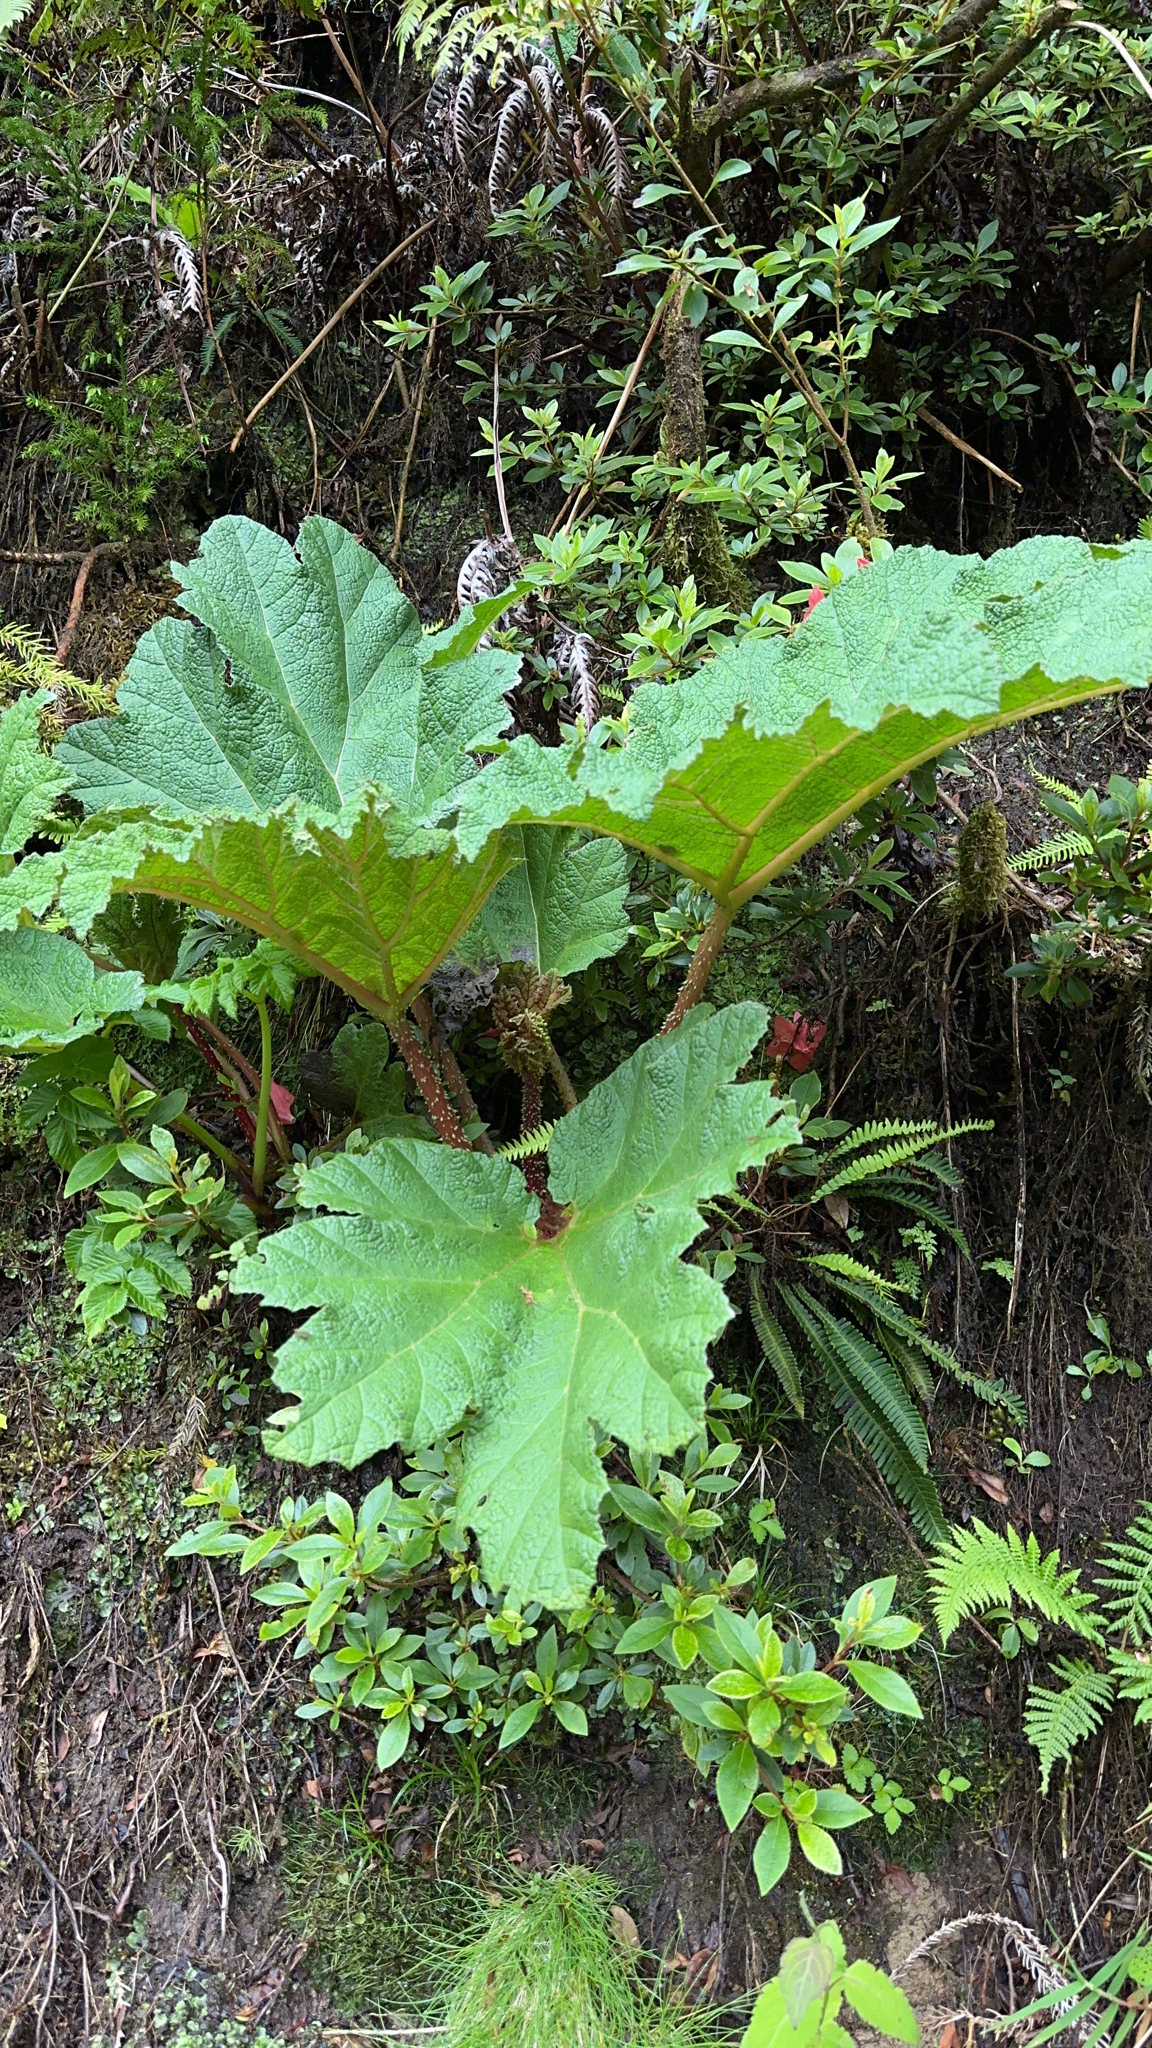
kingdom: Plantae
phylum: Tracheophyta
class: Magnoliopsida
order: Gunnerales
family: Gunneraceae
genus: Gunnera
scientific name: Gunnera tinctoria
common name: Giant-rhubarb
